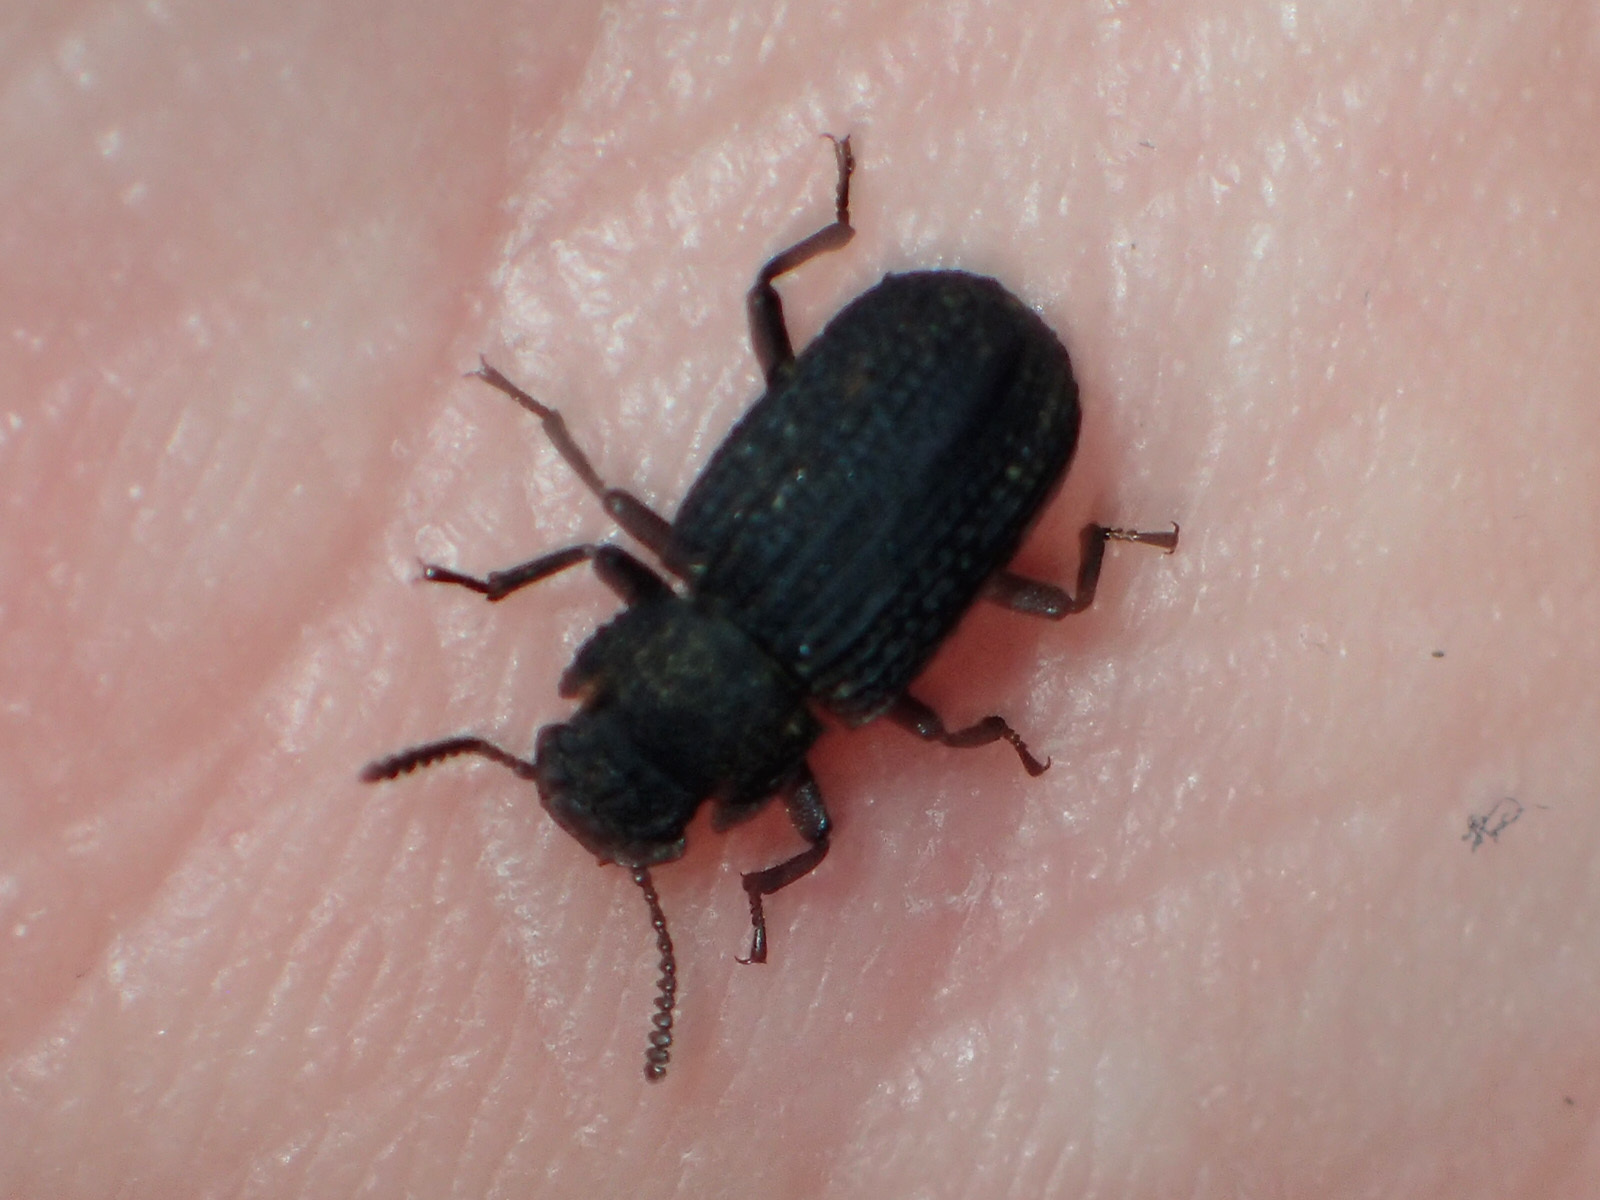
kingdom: Animalia
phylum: Arthropoda
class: Insecta
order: Coleoptera
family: Tenebrionidae
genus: Bolitophagus
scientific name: Bolitophagus reticulatus
